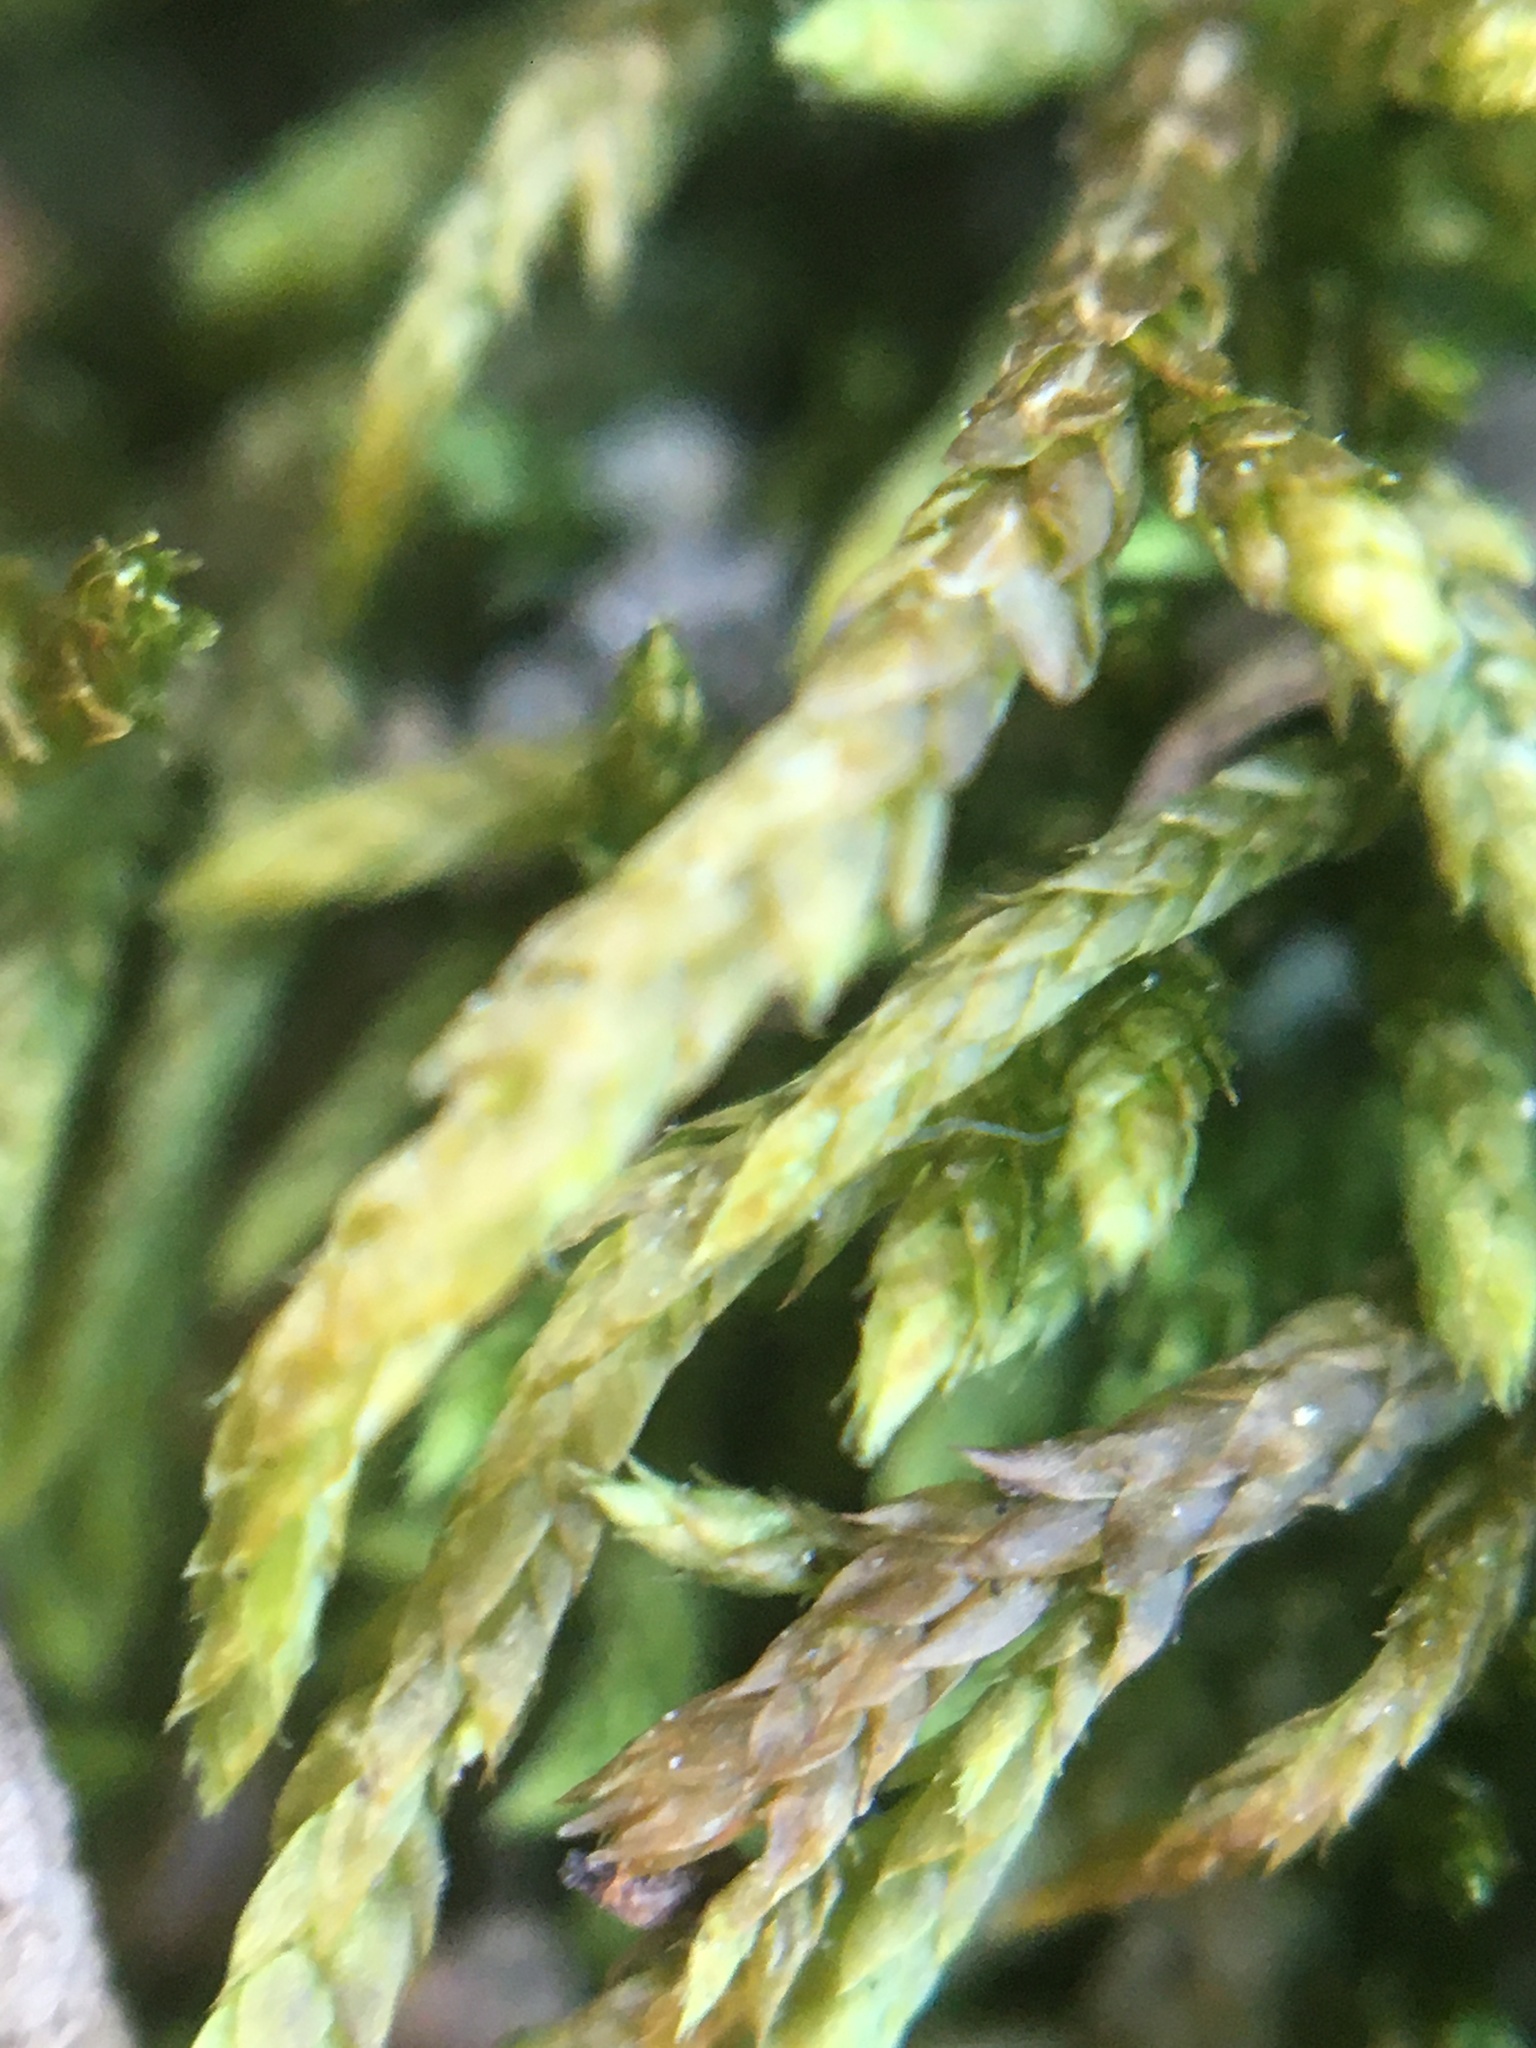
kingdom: Plantae
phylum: Bryophyta
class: Bryopsida
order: Hypnales
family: Entodontaceae
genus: Entodon
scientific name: Entodon seductrix
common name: Round-stemmed entodon moss
